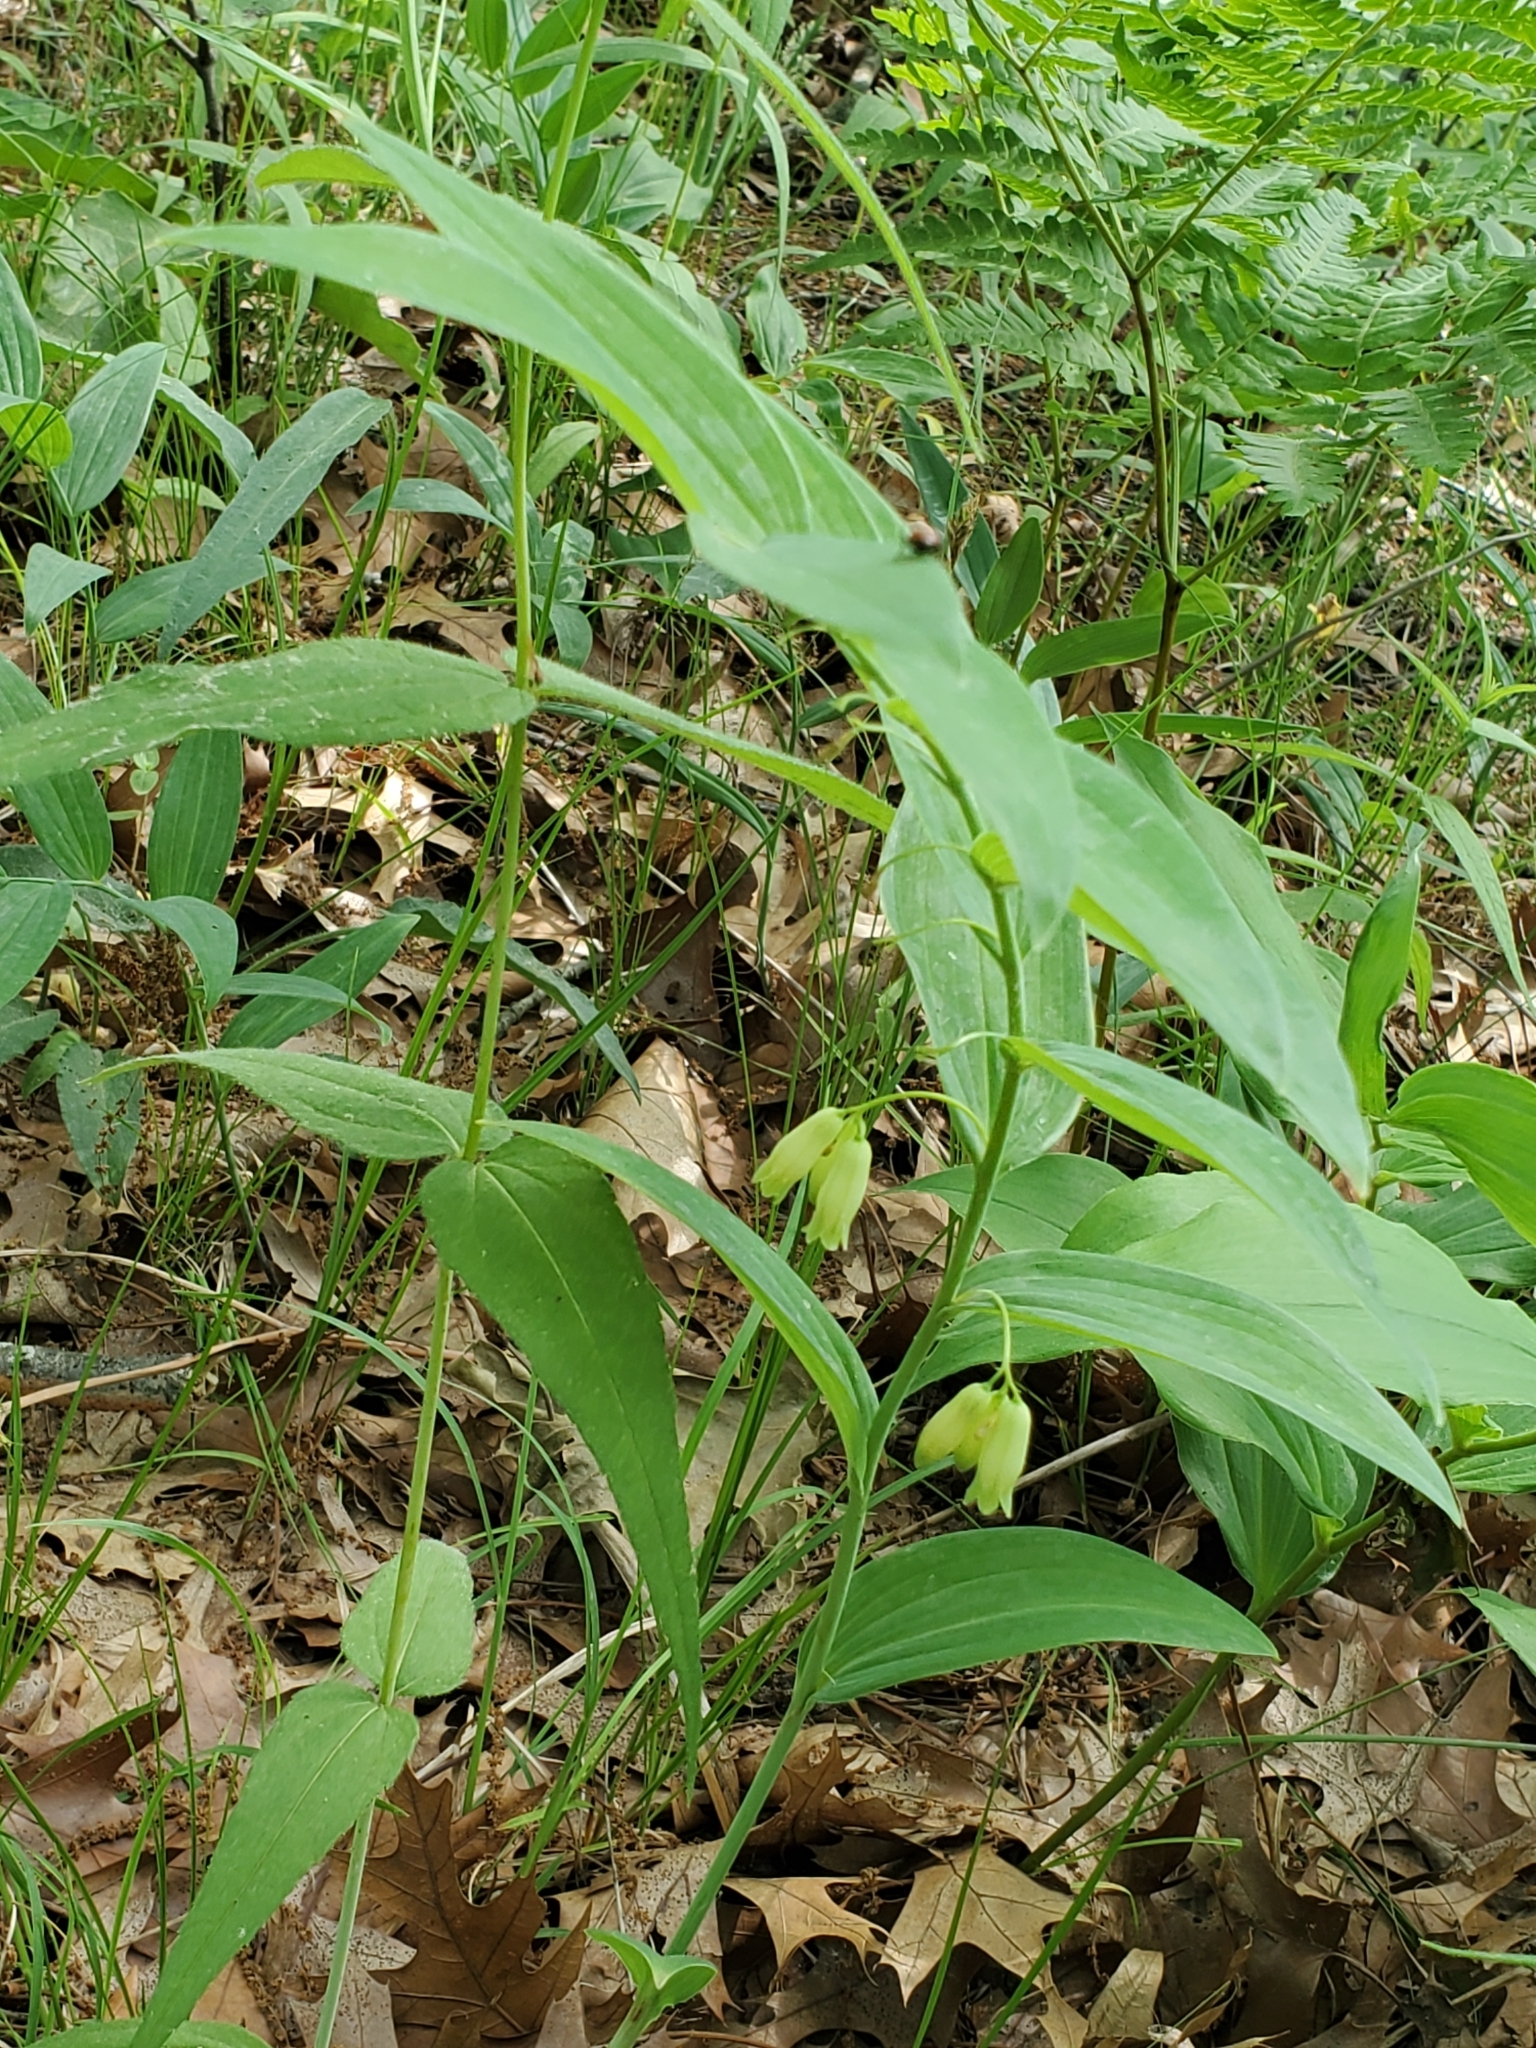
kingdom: Plantae
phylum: Tracheophyta
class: Liliopsida
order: Asparagales
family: Asparagaceae
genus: Polygonatum
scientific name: Polygonatum biflorum
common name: American solomon's-seal
